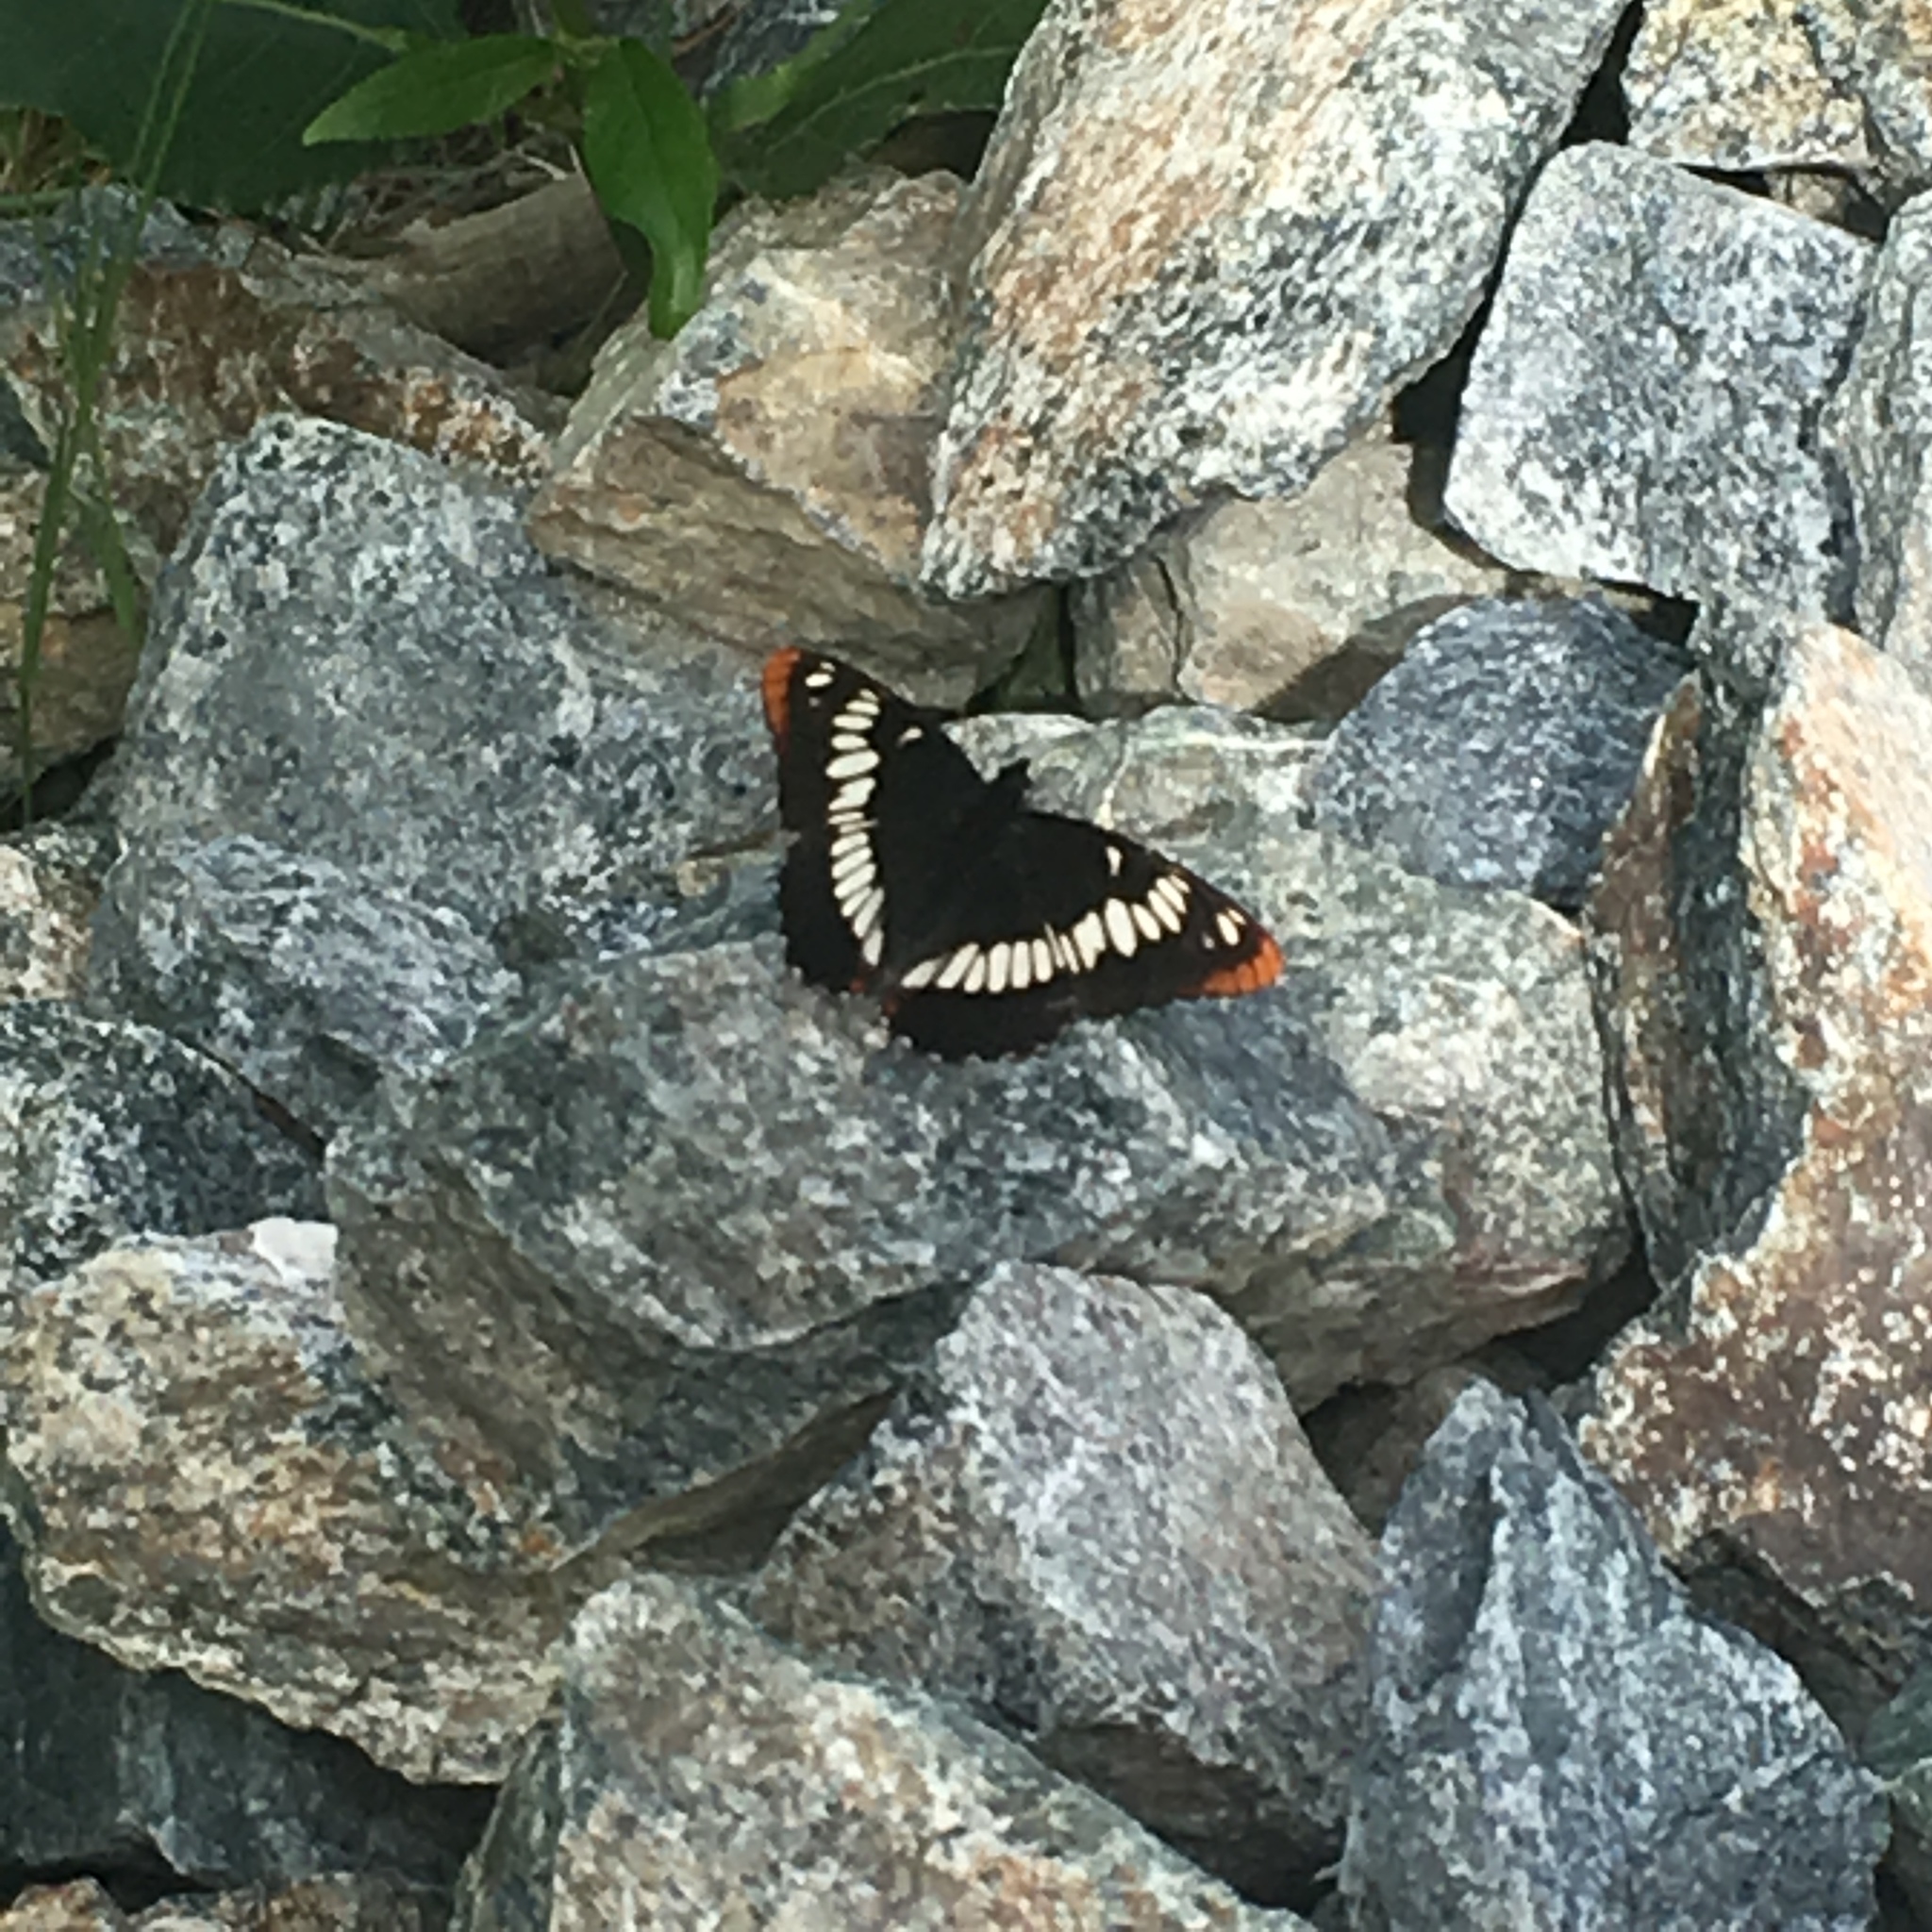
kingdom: Animalia
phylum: Arthropoda
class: Insecta
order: Lepidoptera
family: Nymphalidae
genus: Limenitis
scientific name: Limenitis lorquini
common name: Lorquin's admiral
